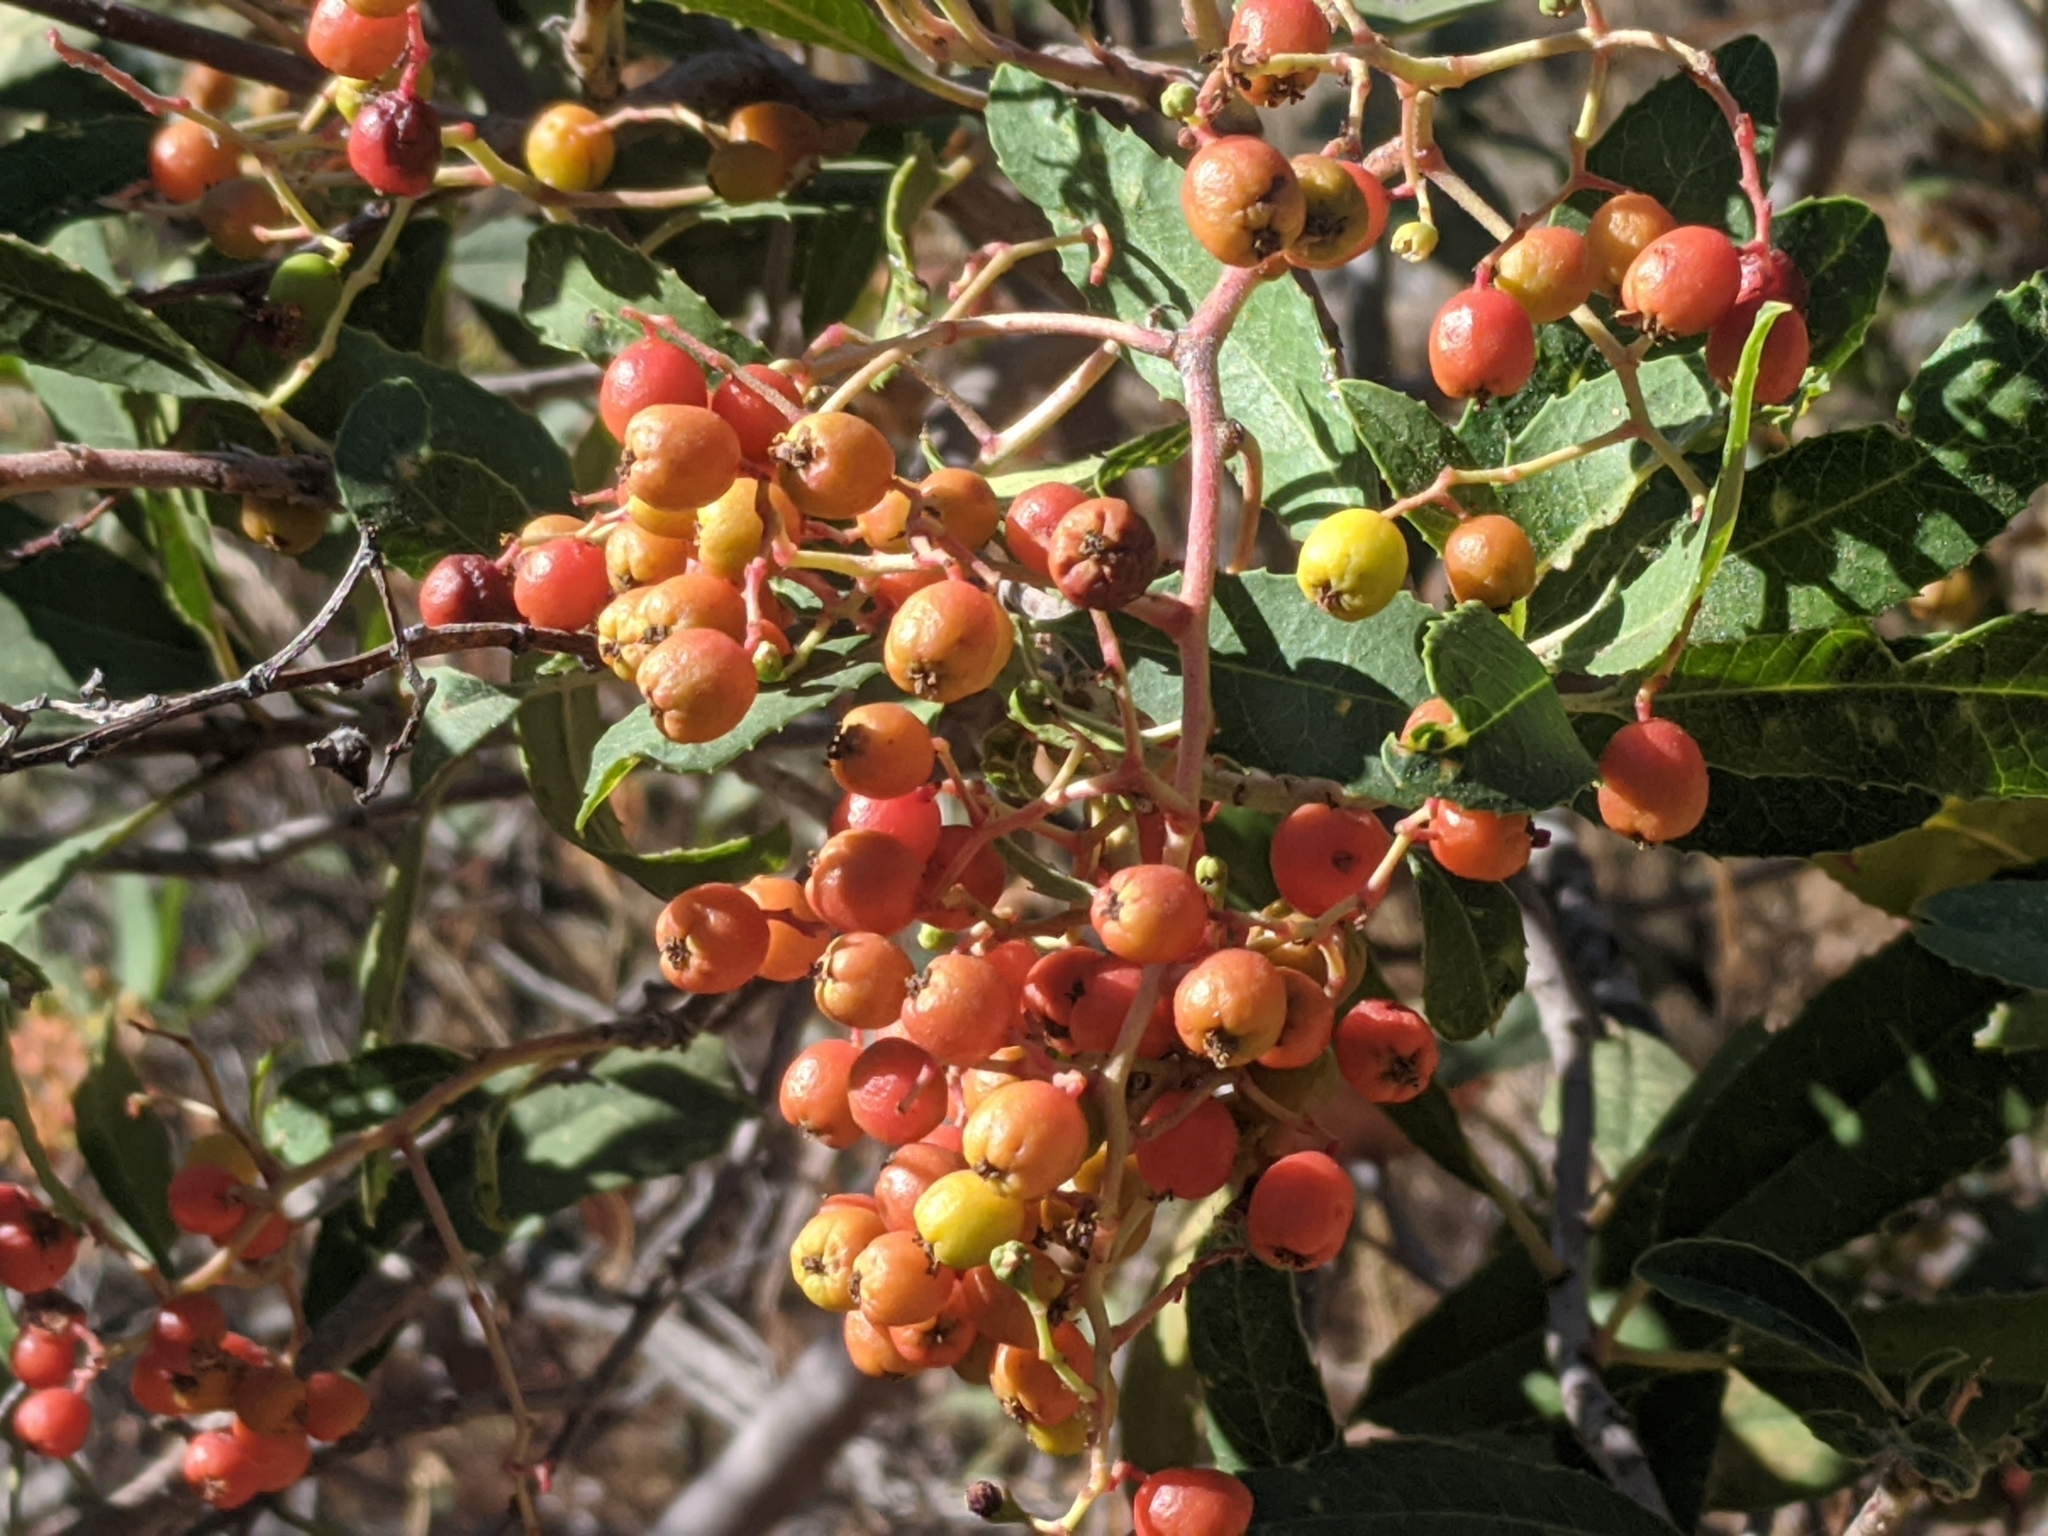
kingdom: Plantae
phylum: Tracheophyta
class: Magnoliopsida
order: Rosales
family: Rosaceae
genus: Heteromeles
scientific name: Heteromeles arbutifolia
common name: California-holly
